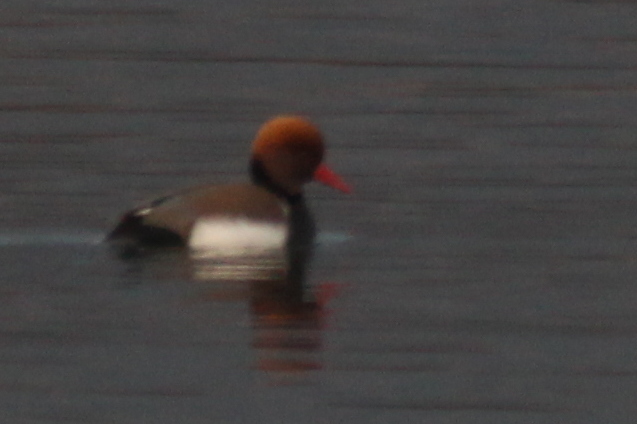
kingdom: Animalia
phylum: Chordata
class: Aves
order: Anseriformes
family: Anatidae
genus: Netta
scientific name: Netta rufina
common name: Red-crested pochard
